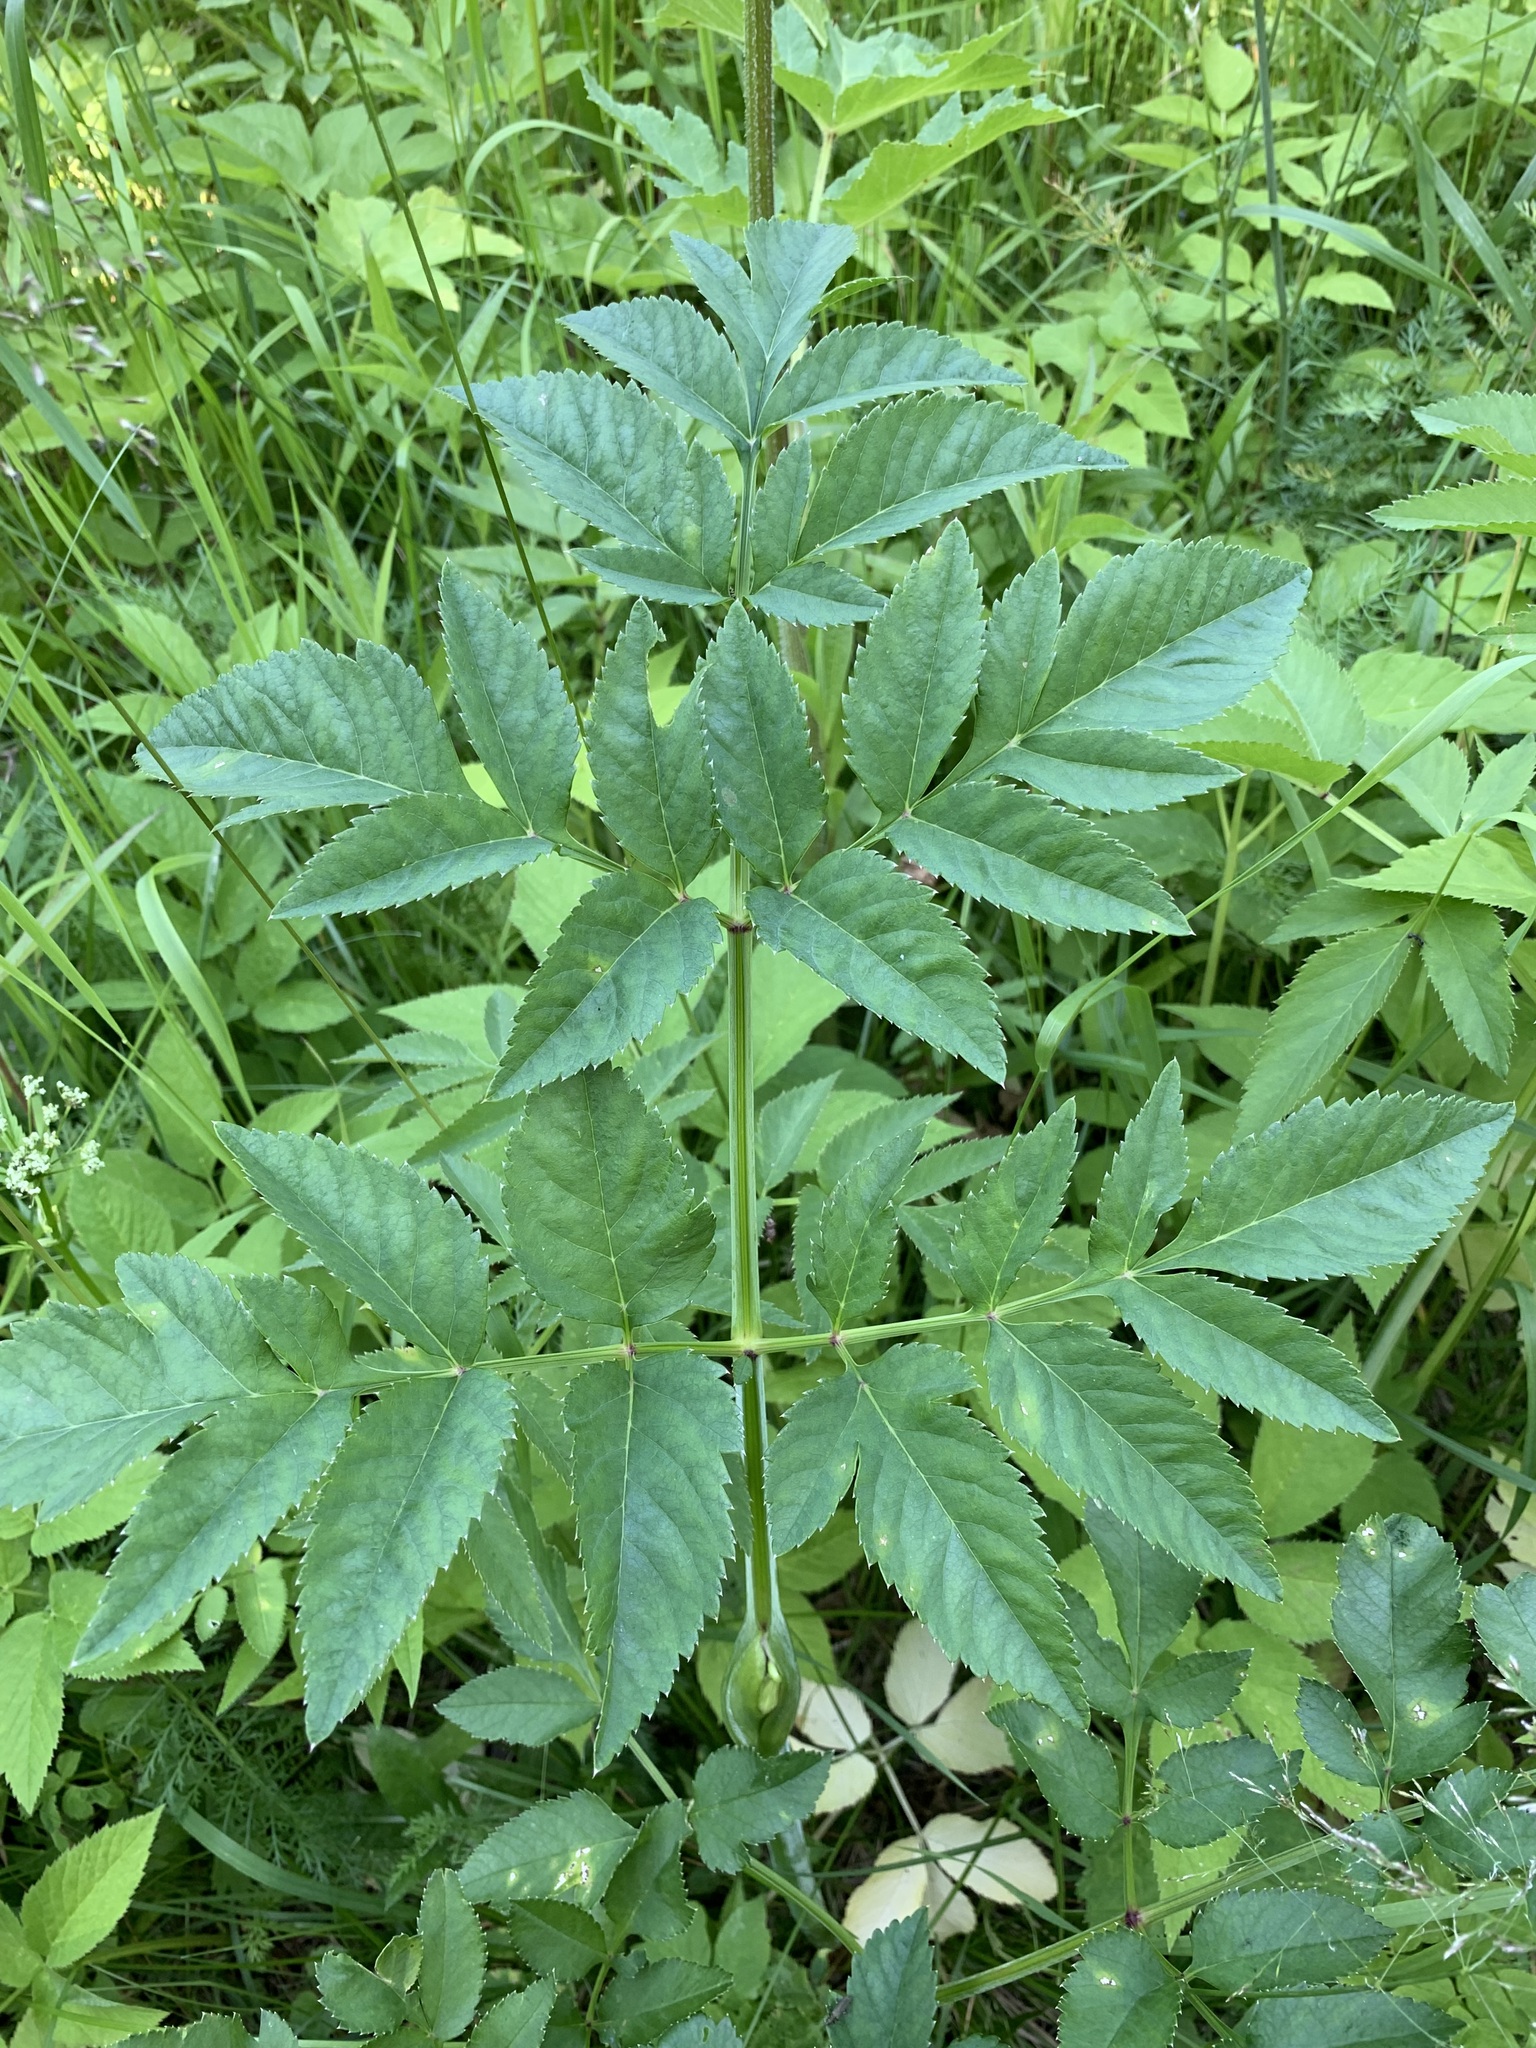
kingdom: Plantae
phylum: Tracheophyta
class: Magnoliopsida
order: Apiales
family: Apiaceae
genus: Angelica
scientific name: Angelica sylvestris
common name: Wild angelica
